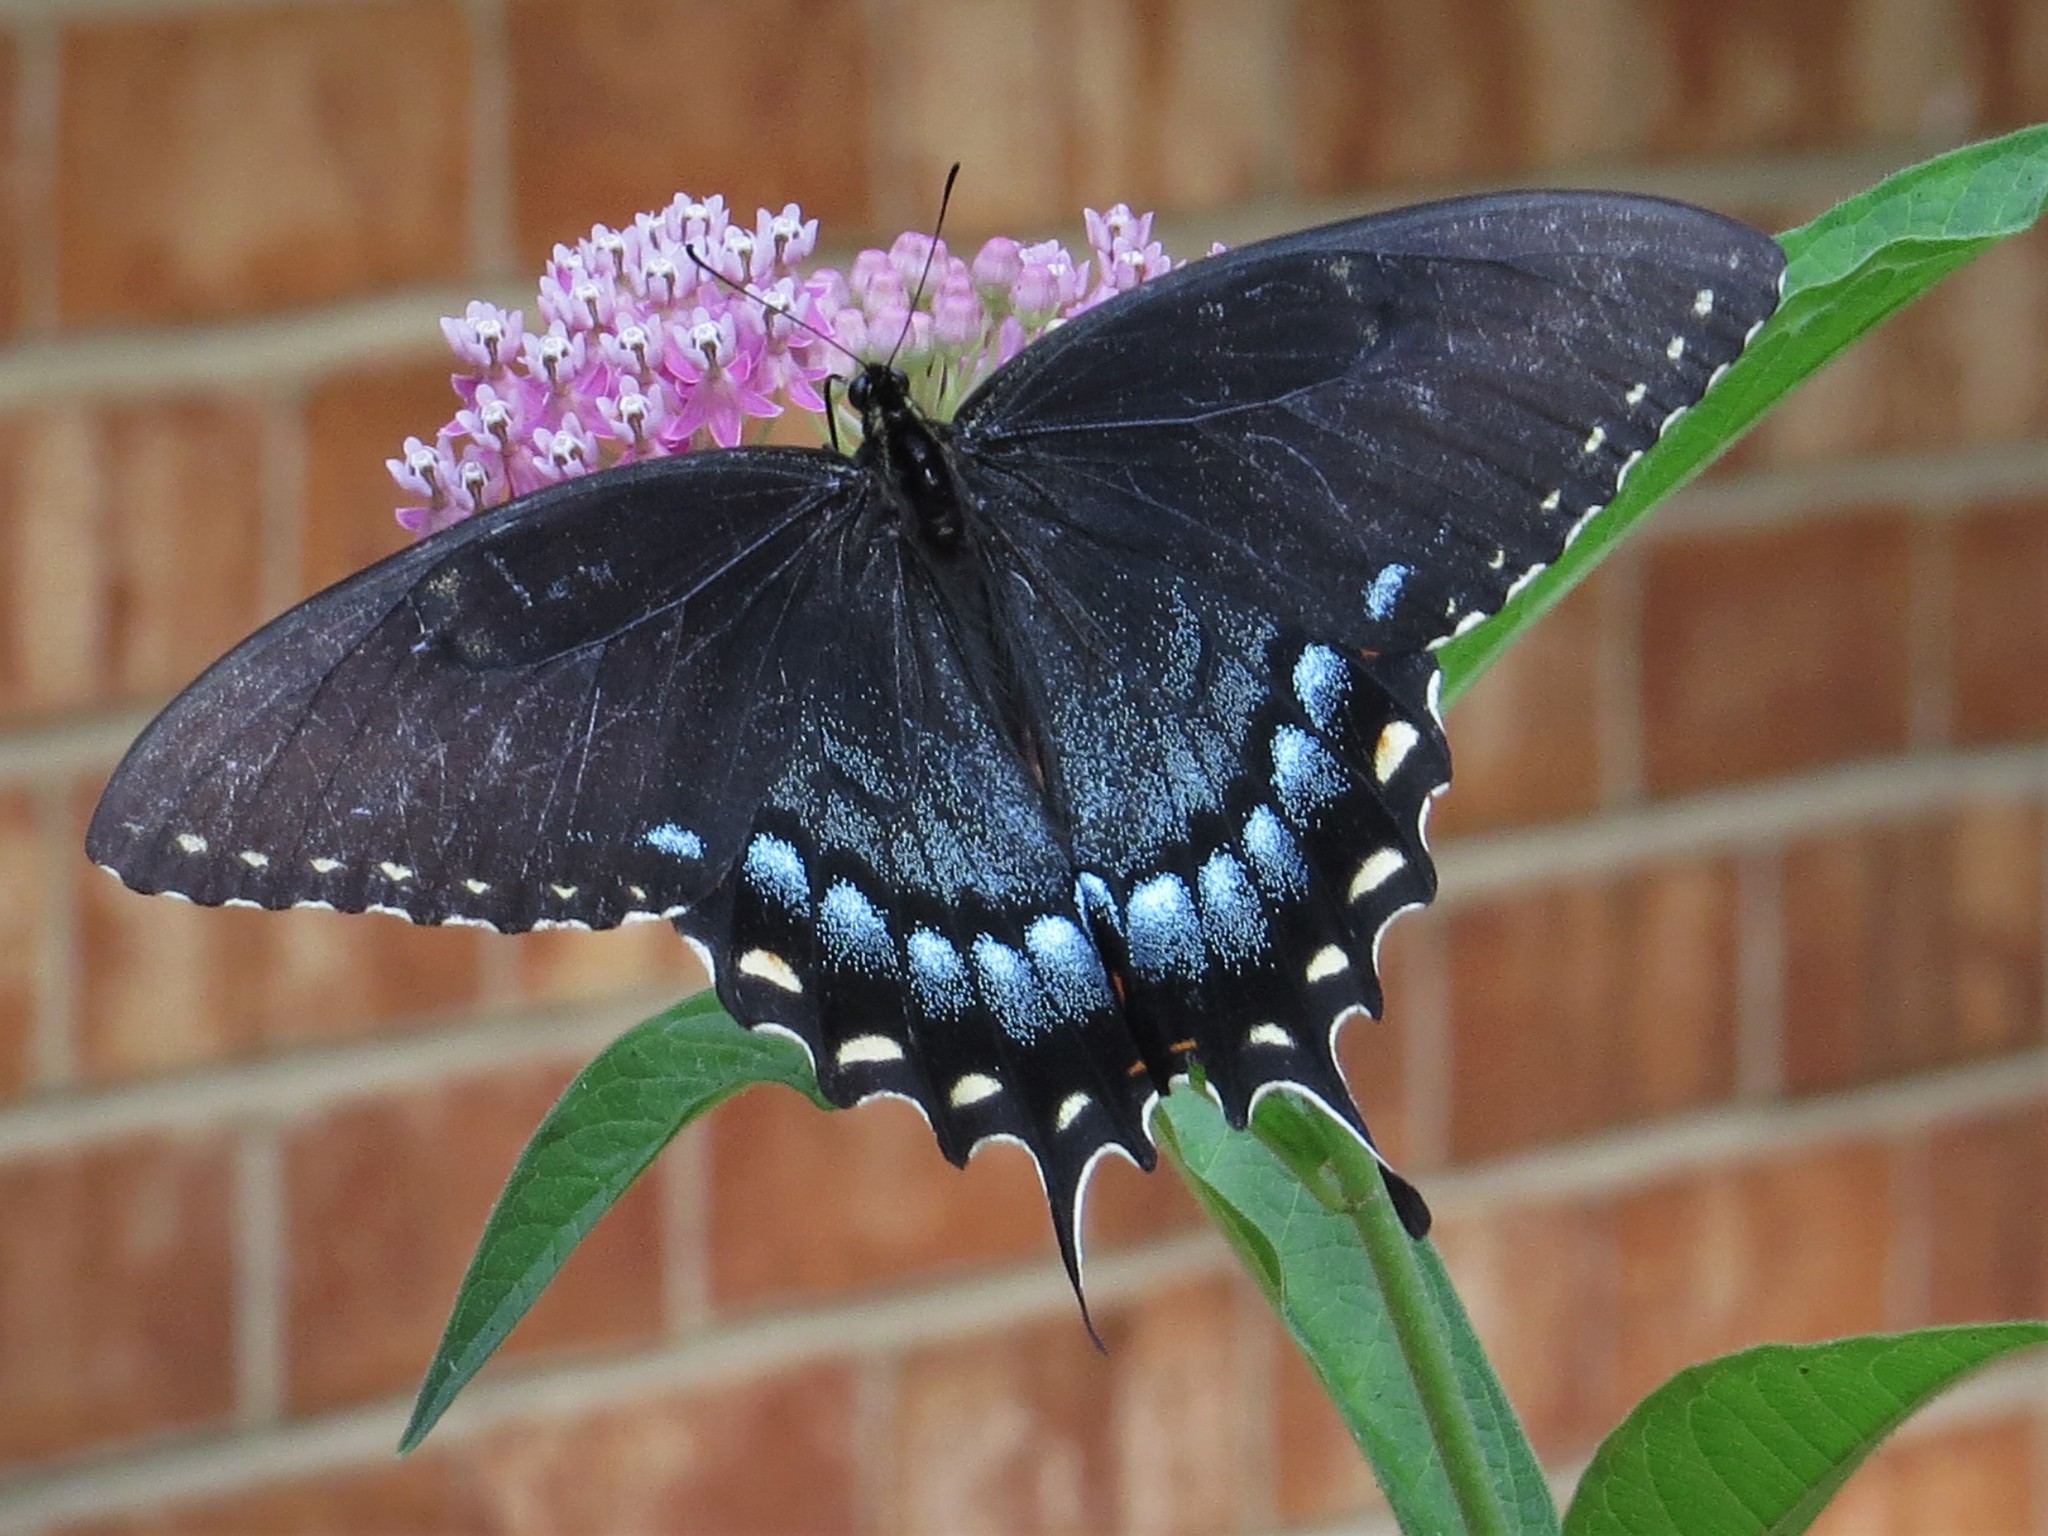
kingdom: Animalia
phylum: Arthropoda
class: Insecta
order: Lepidoptera
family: Papilionidae
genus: Papilio
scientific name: Papilio glaucus
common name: Tiger swallowtail
